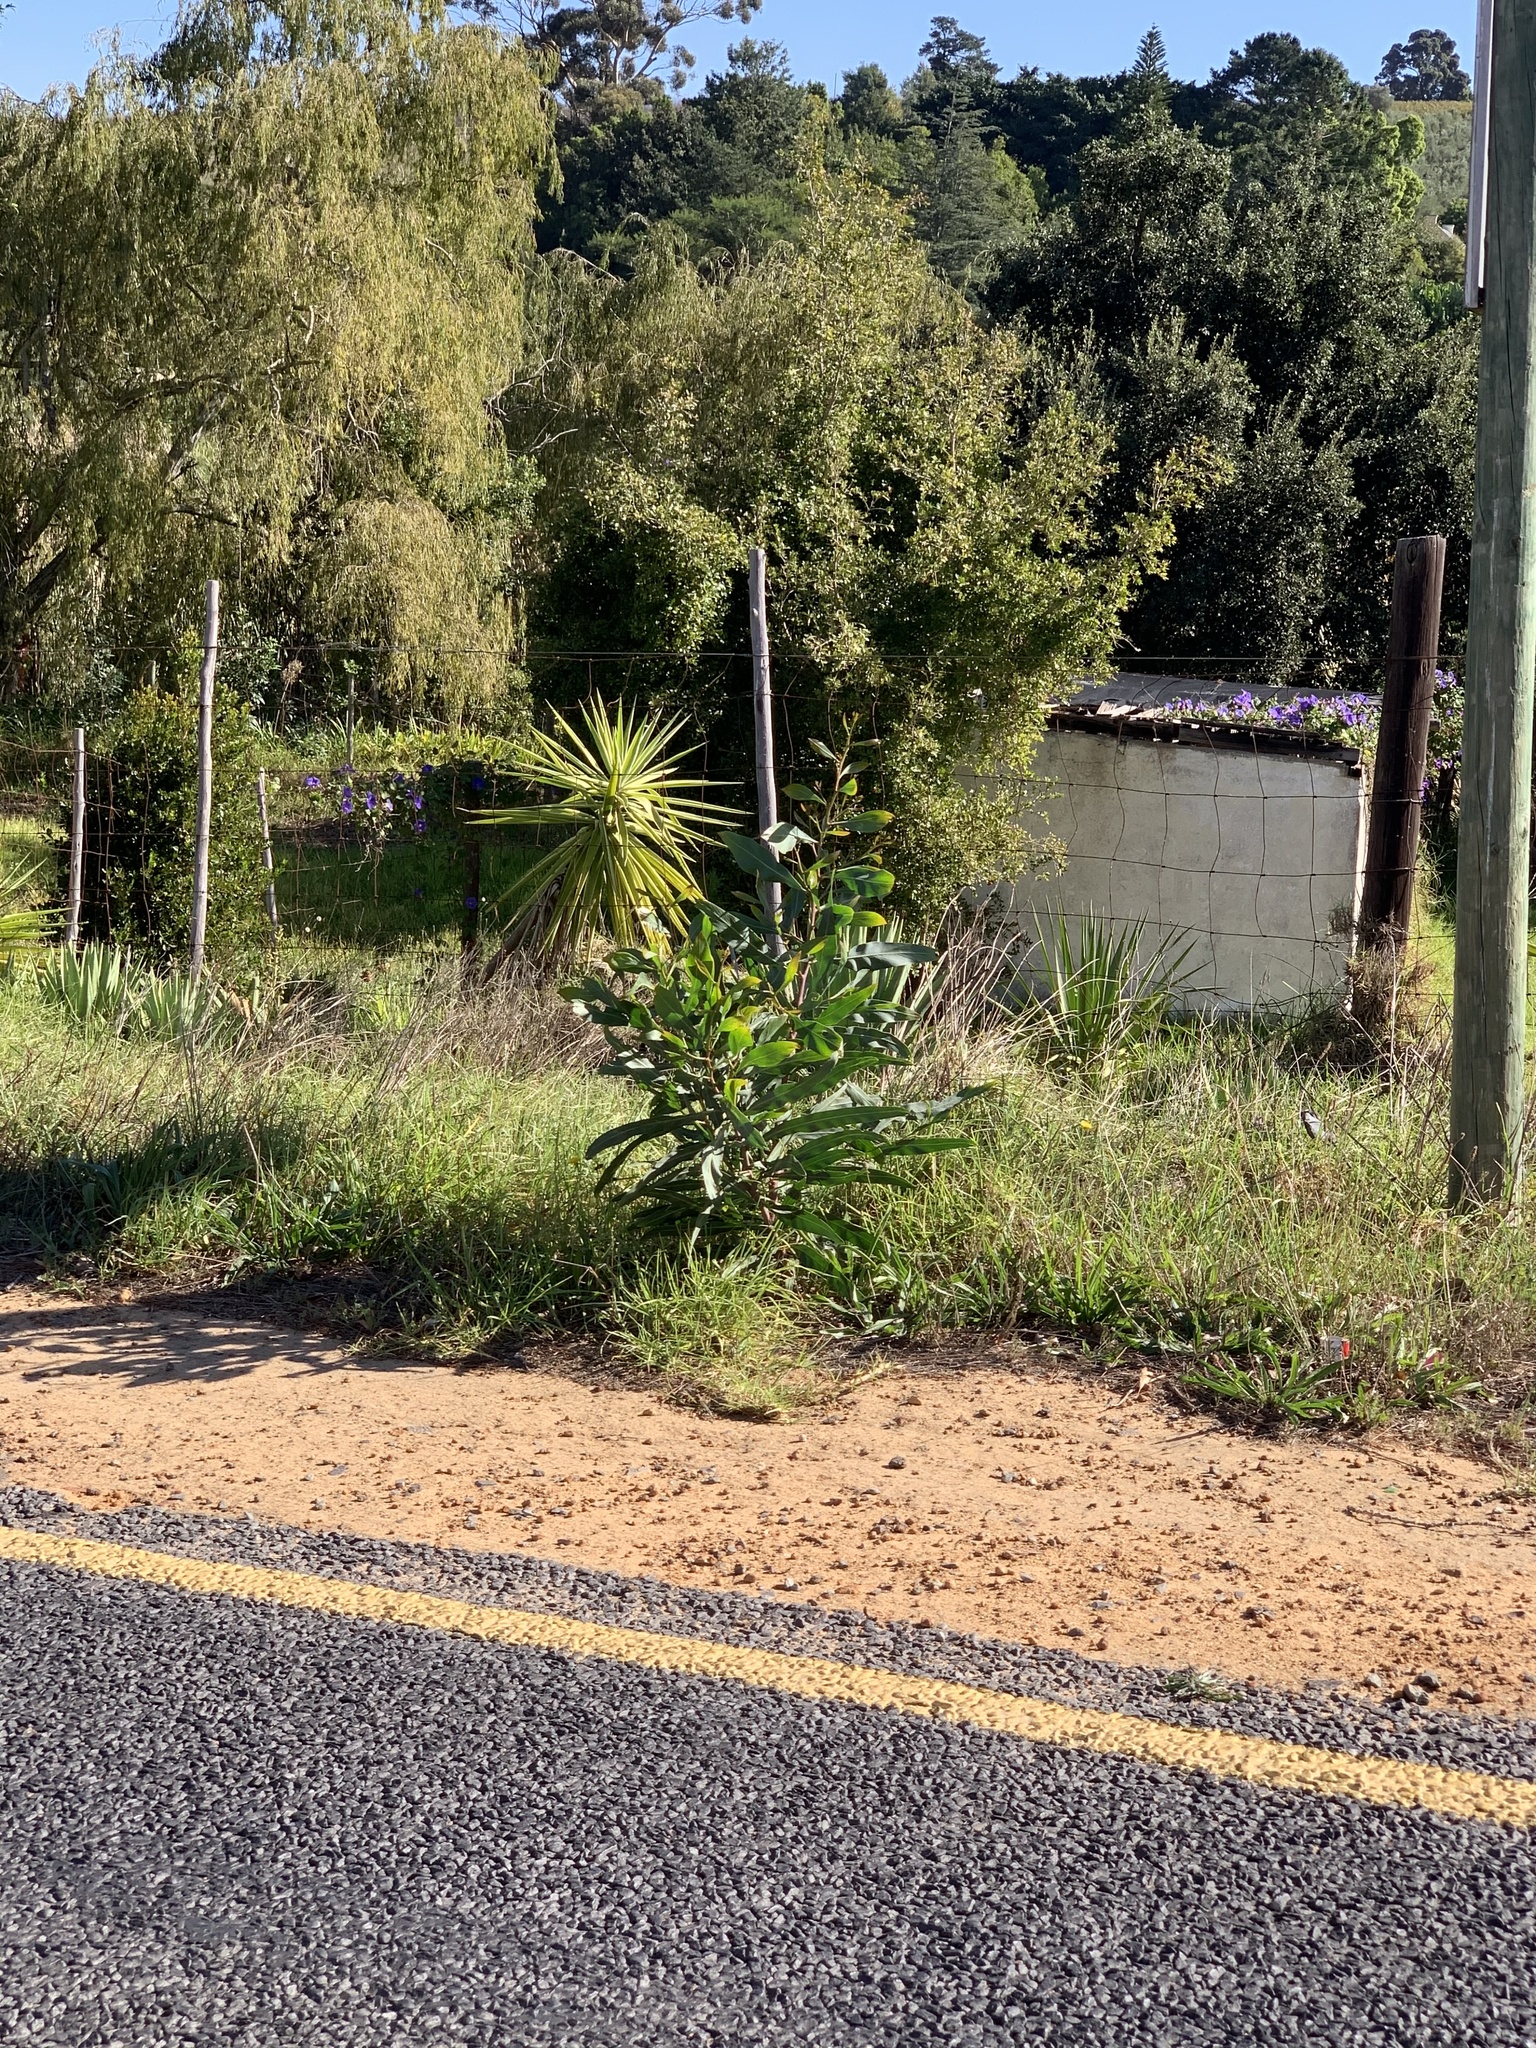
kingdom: Plantae
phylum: Tracheophyta
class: Magnoliopsida
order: Fabales
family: Fabaceae
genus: Acacia
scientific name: Acacia saligna
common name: Orange wattle
